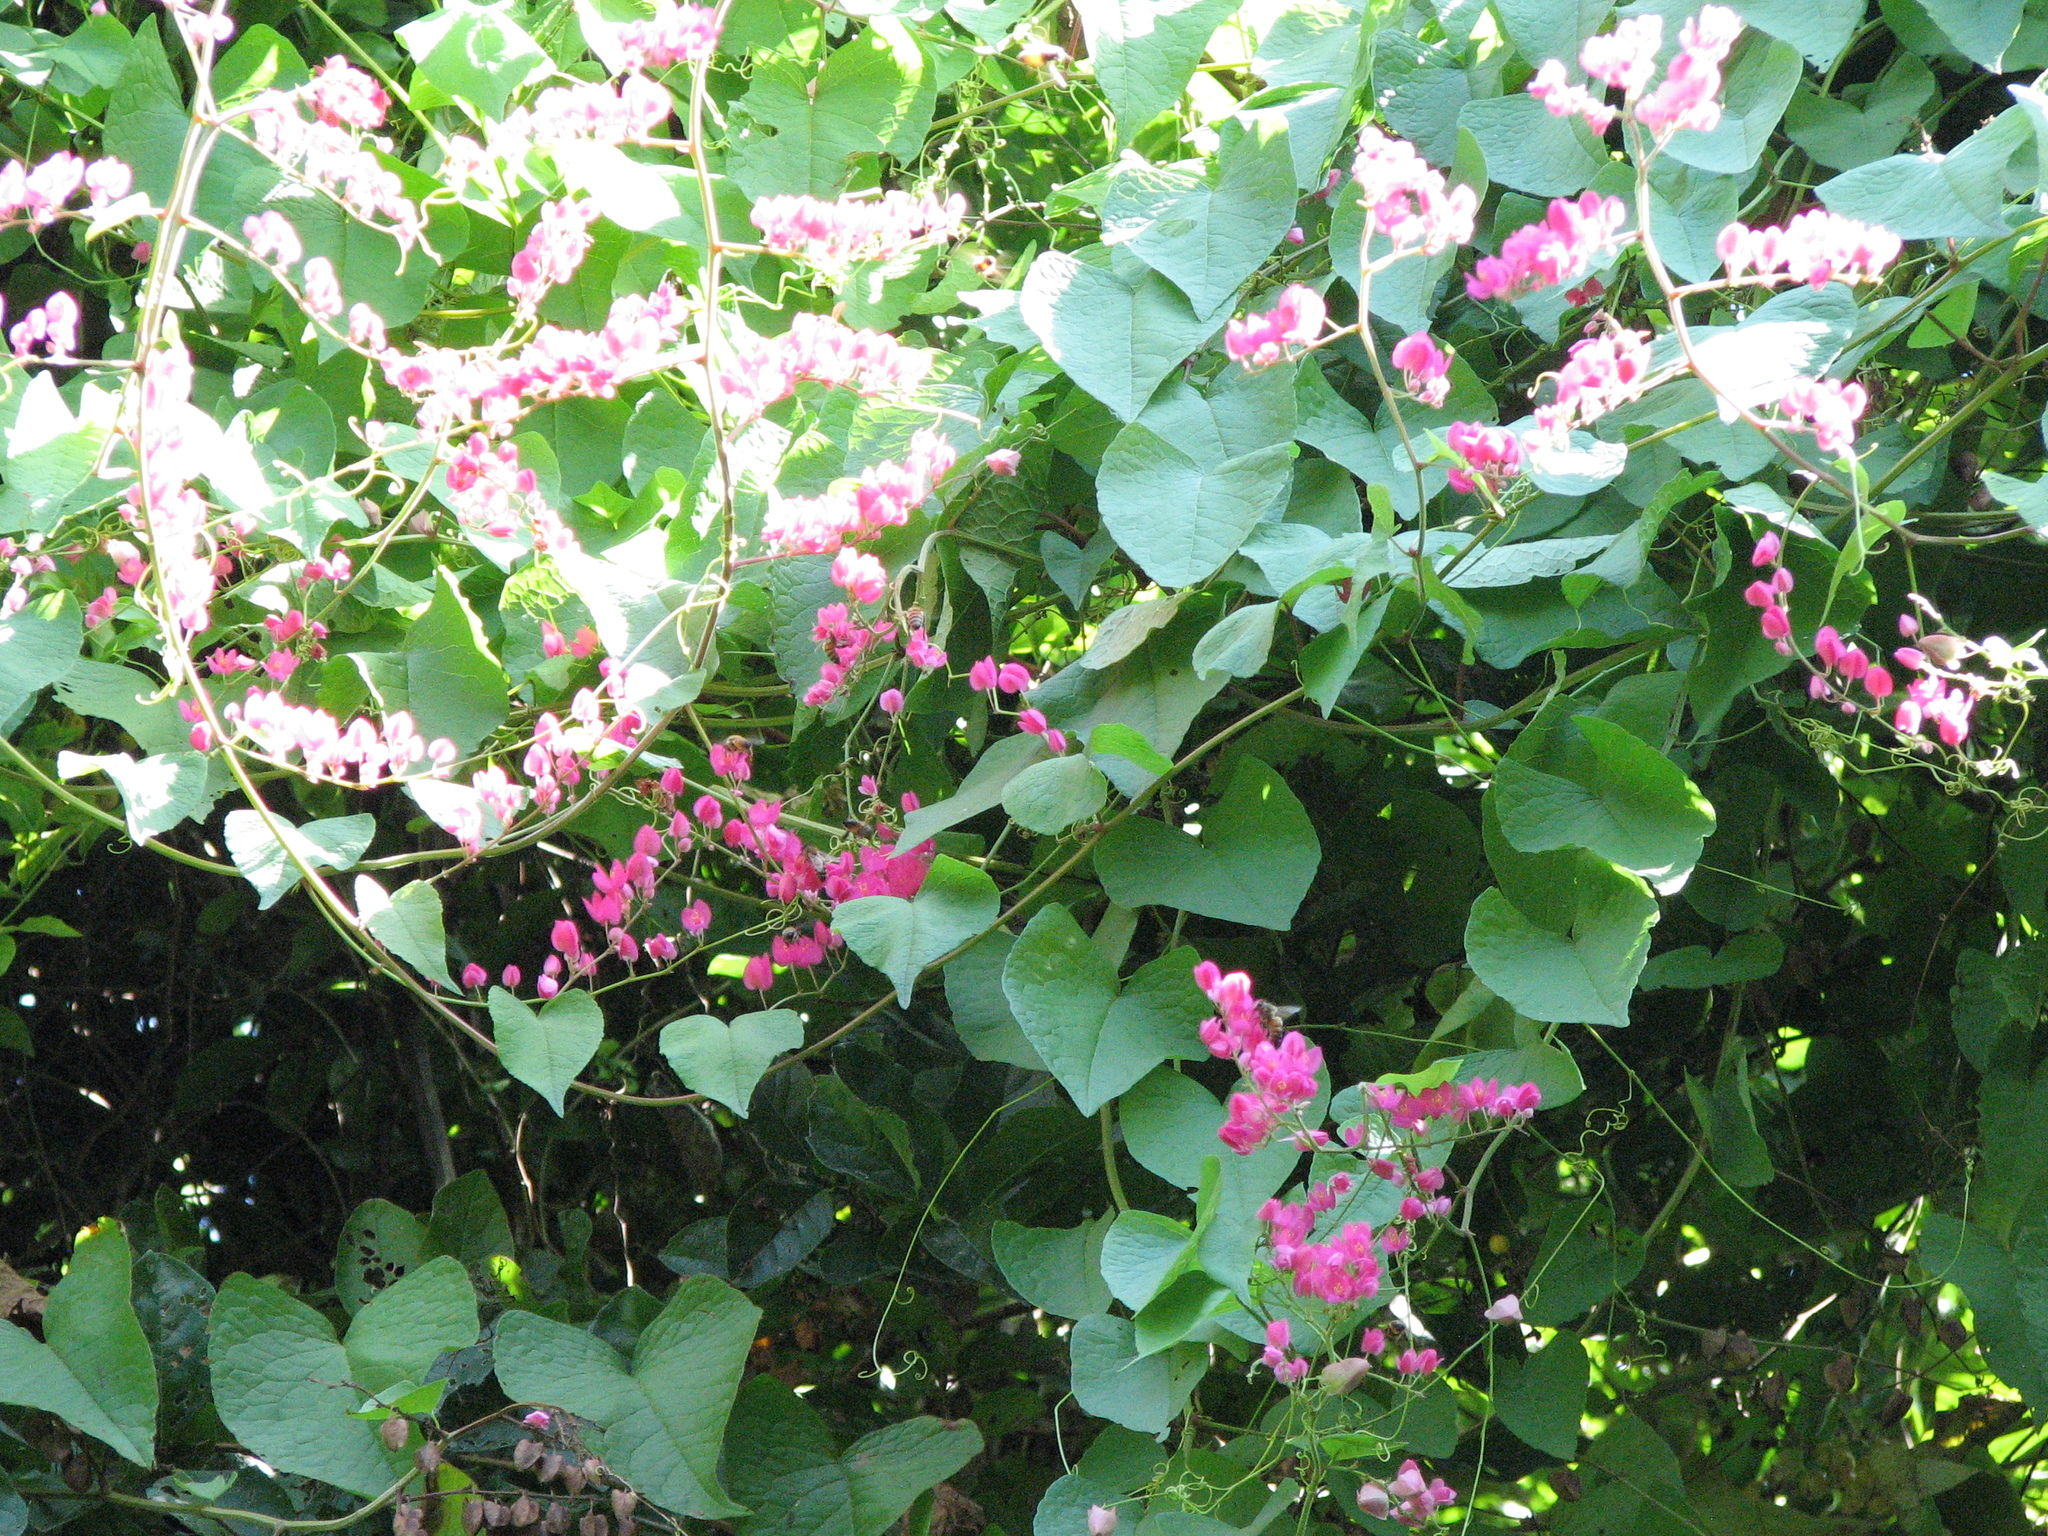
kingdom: Plantae
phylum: Tracheophyta
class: Magnoliopsida
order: Caryophyllales
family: Polygonaceae
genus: Antigonon
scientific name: Antigonon leptopus
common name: Coral vine
